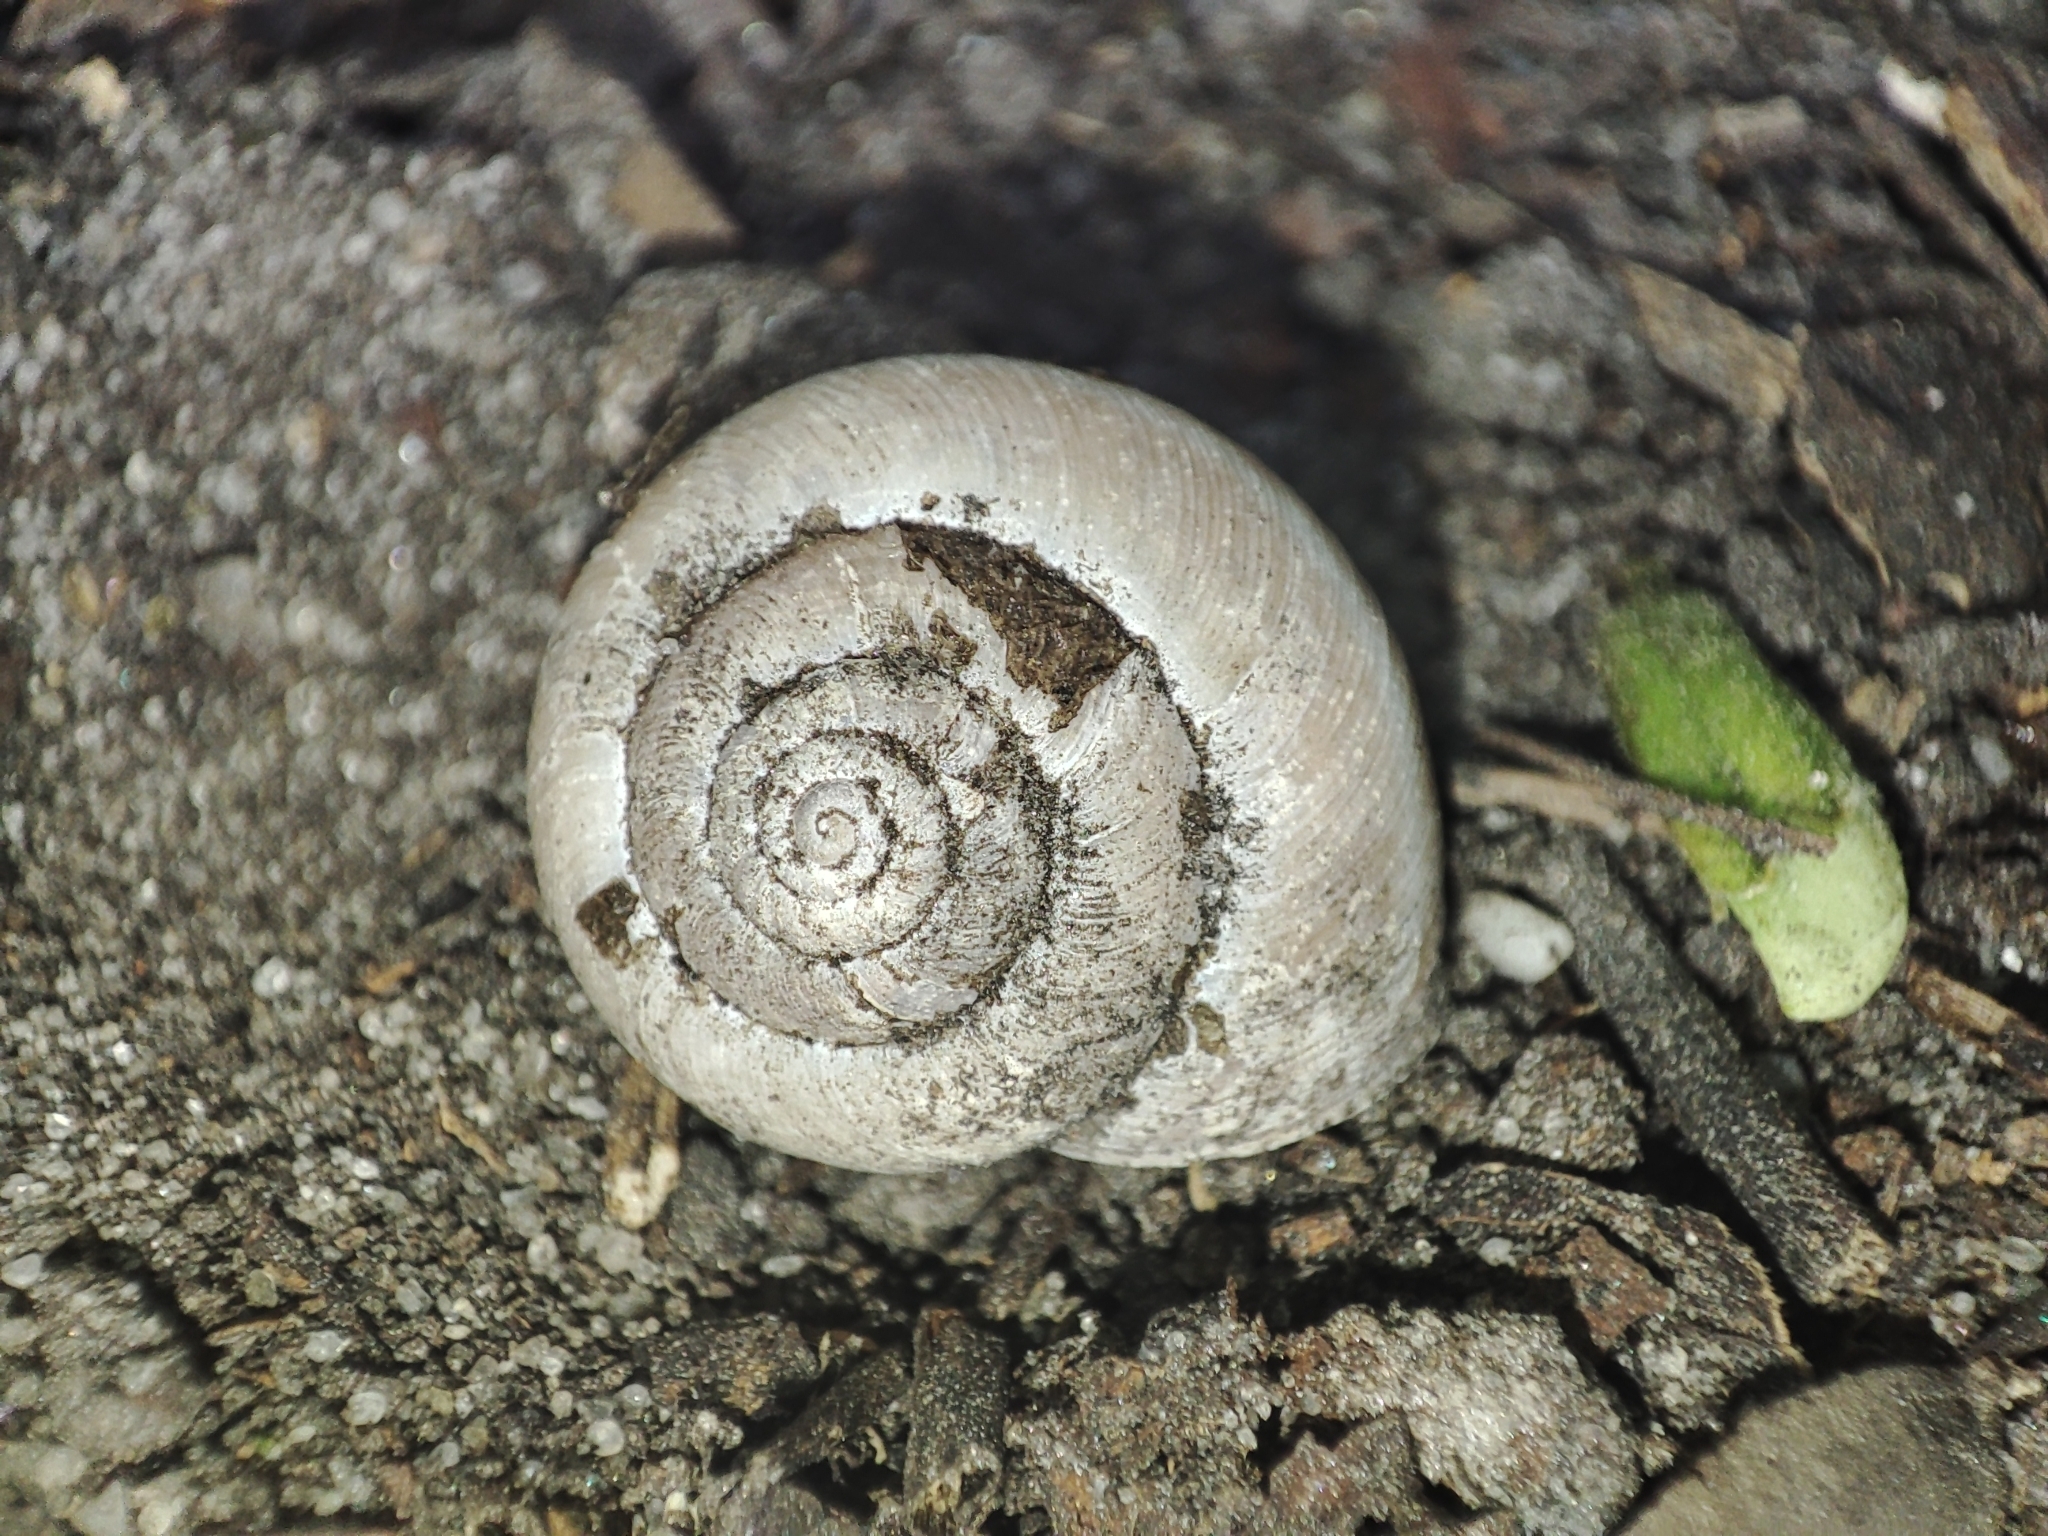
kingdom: Animalia
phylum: Mollusca
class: Gastropoda
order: Stylommatophora
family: Hygromiidae
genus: Euomphalia
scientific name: Euomphalia strigella
